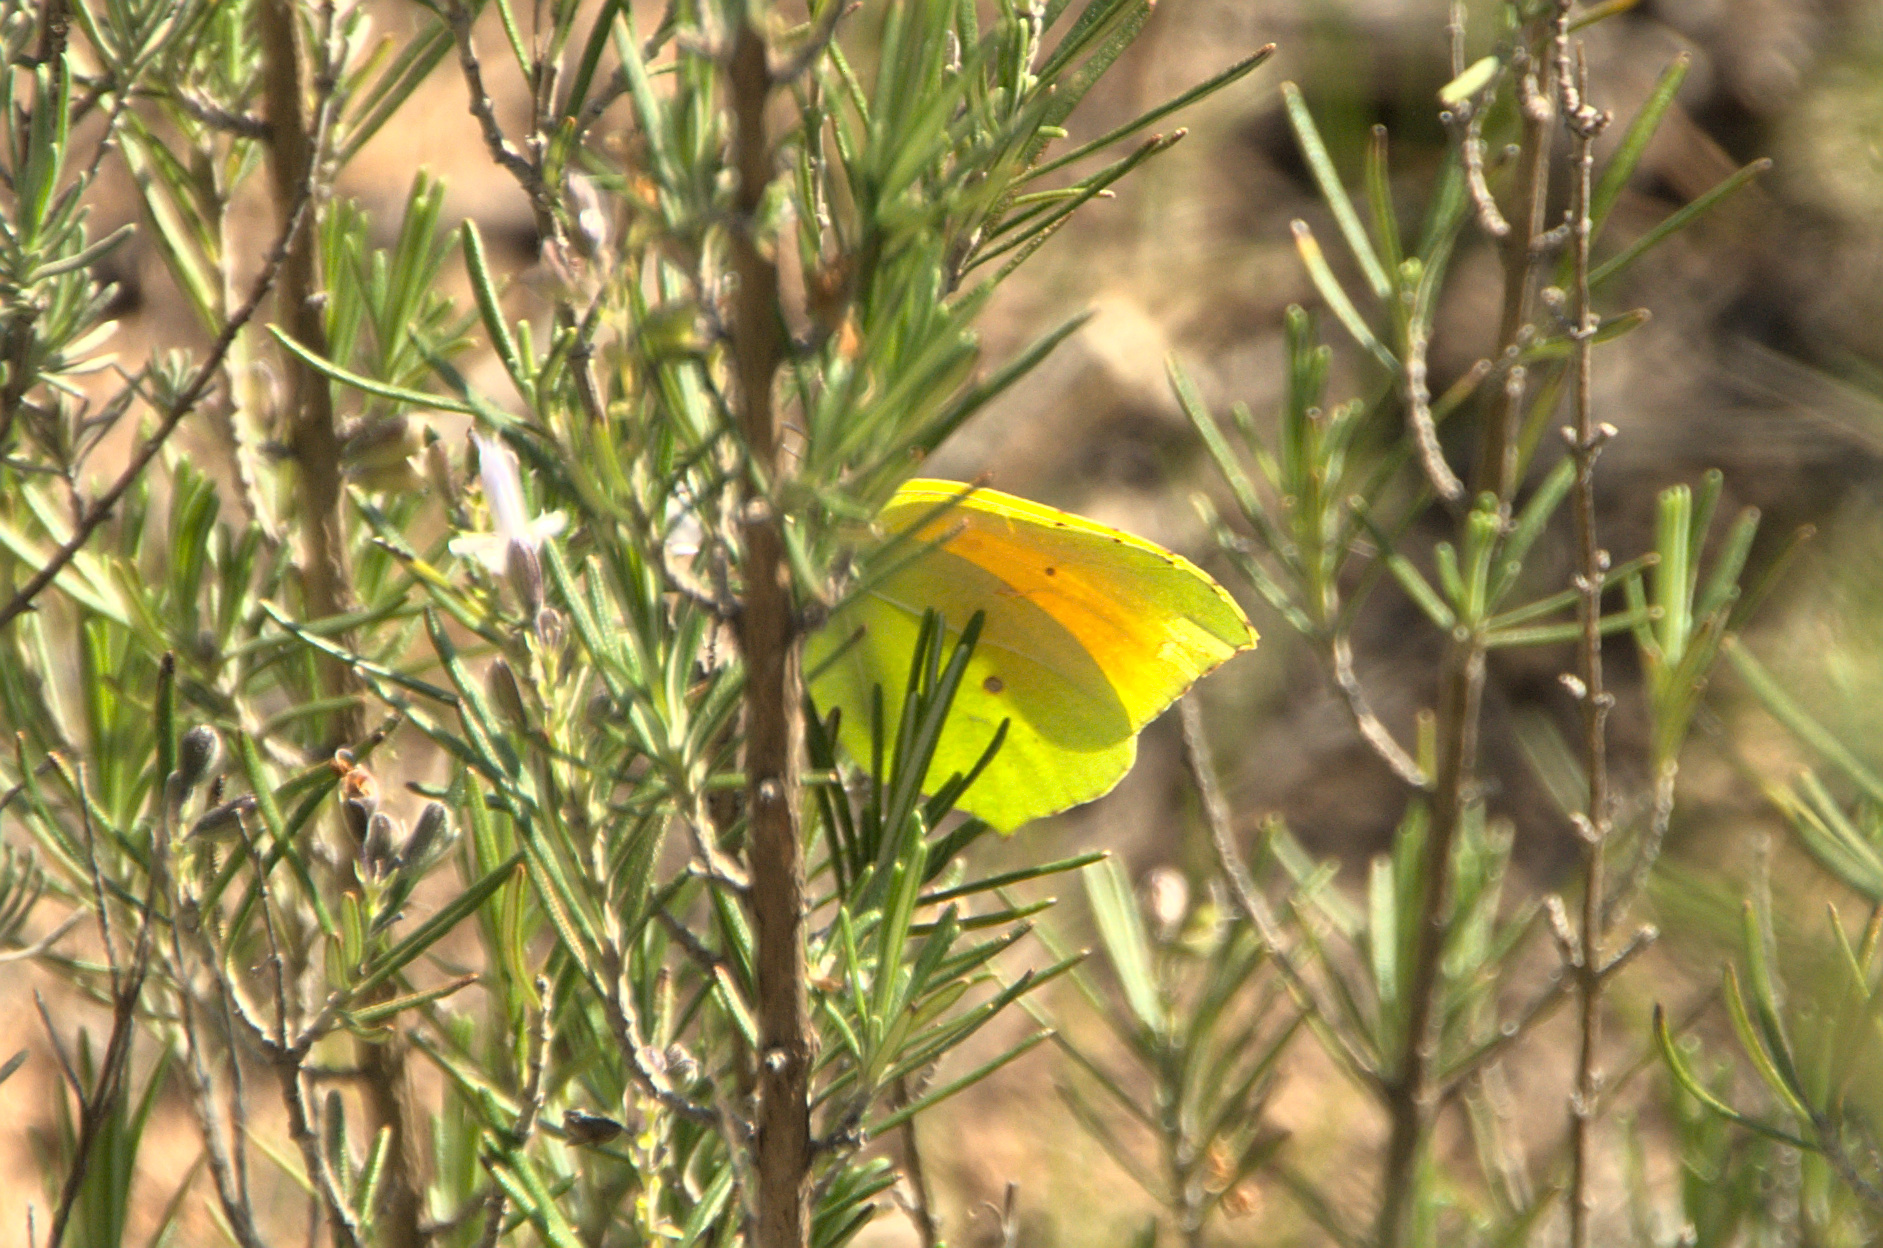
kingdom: Animalia
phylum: Arthropoda
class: Insecta
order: Lepidoptera
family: Pieridae
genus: Gonepteryx
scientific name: Gonepteryx cleopatra
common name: Cleopatra
